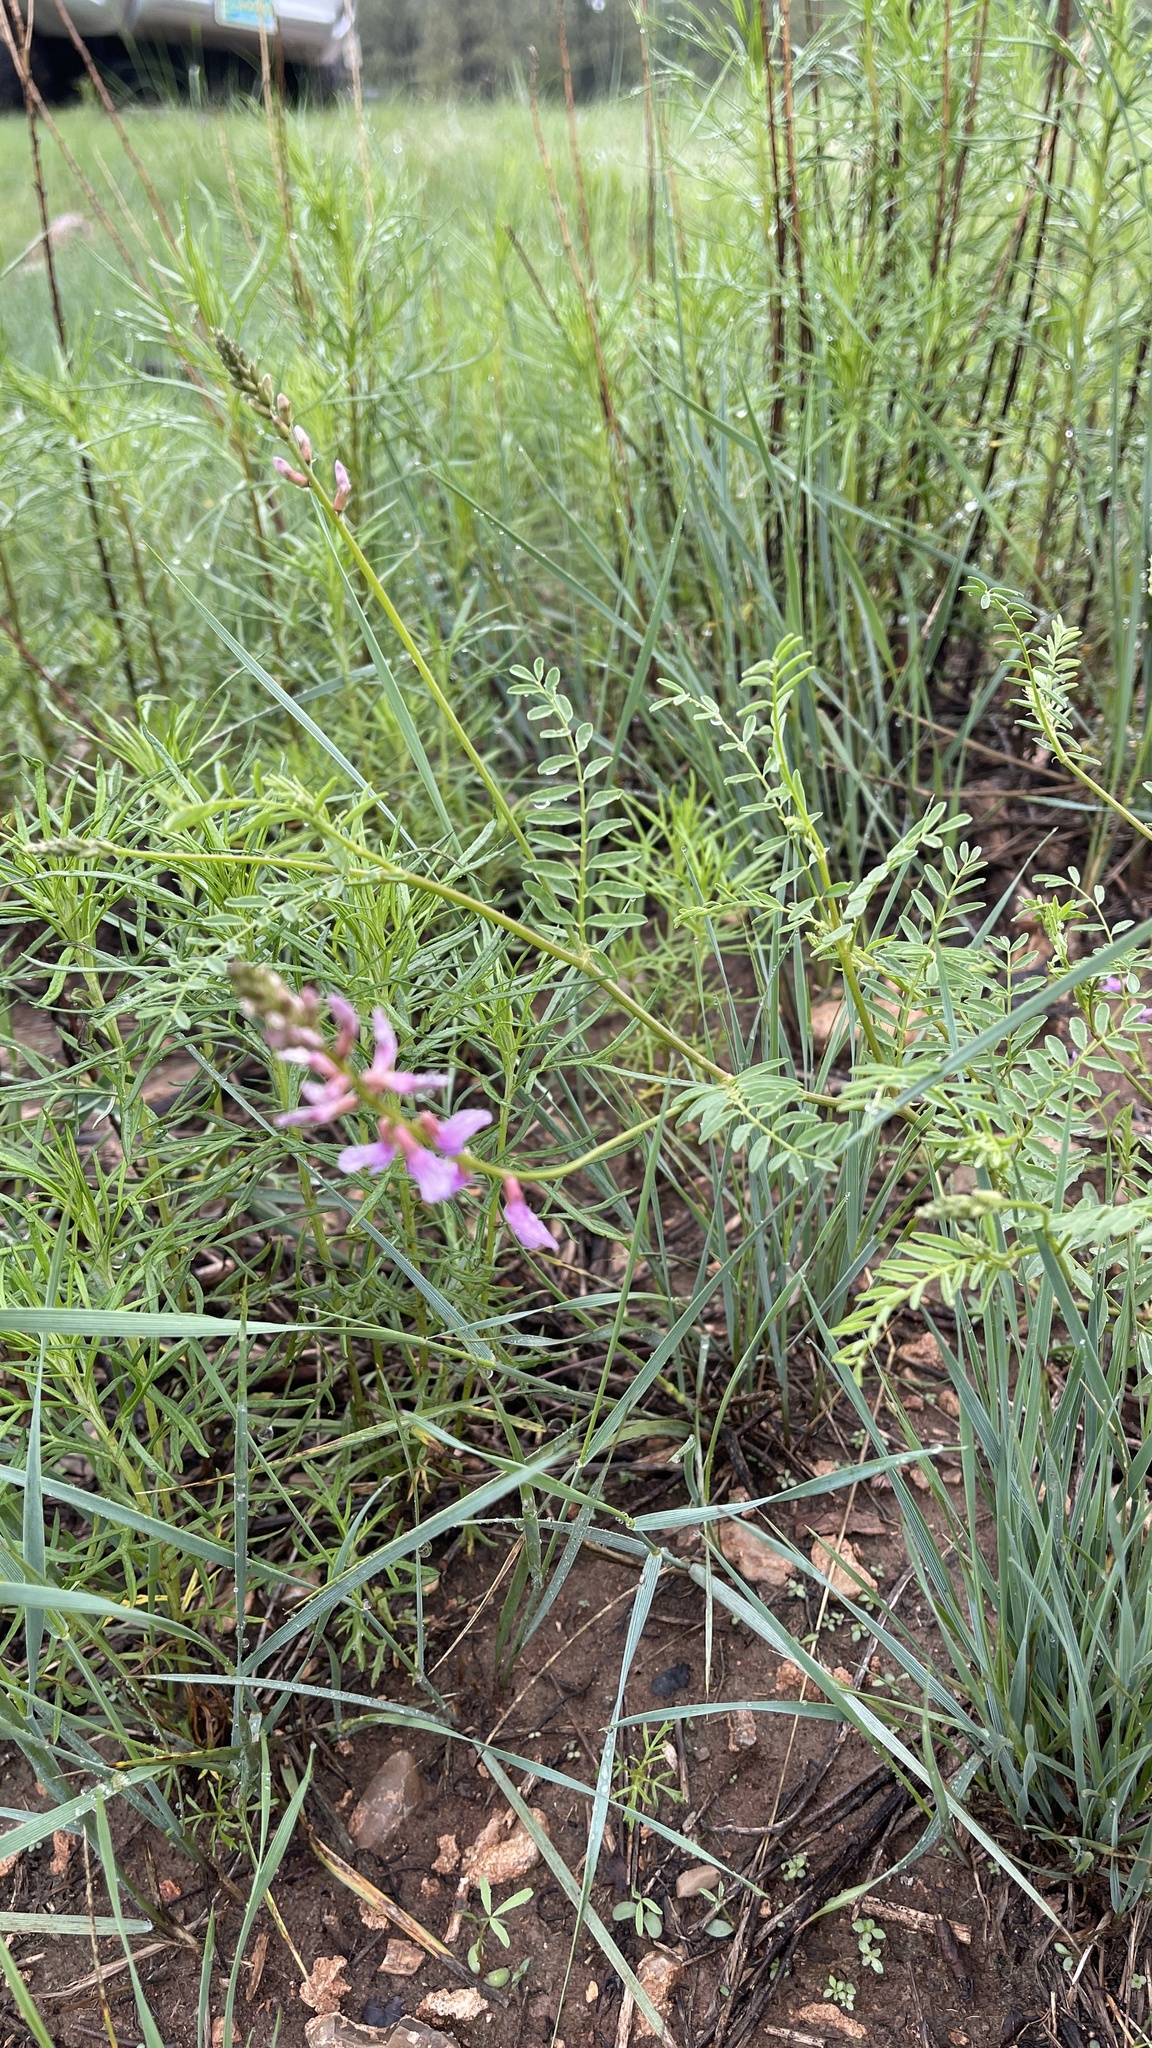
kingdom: Plantae
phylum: Tracheophyta
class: Magnoliopsida
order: Fabales
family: Fabaceae
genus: Astragalus
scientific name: Astragalus flexuosus
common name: Pliant milk-vetch
